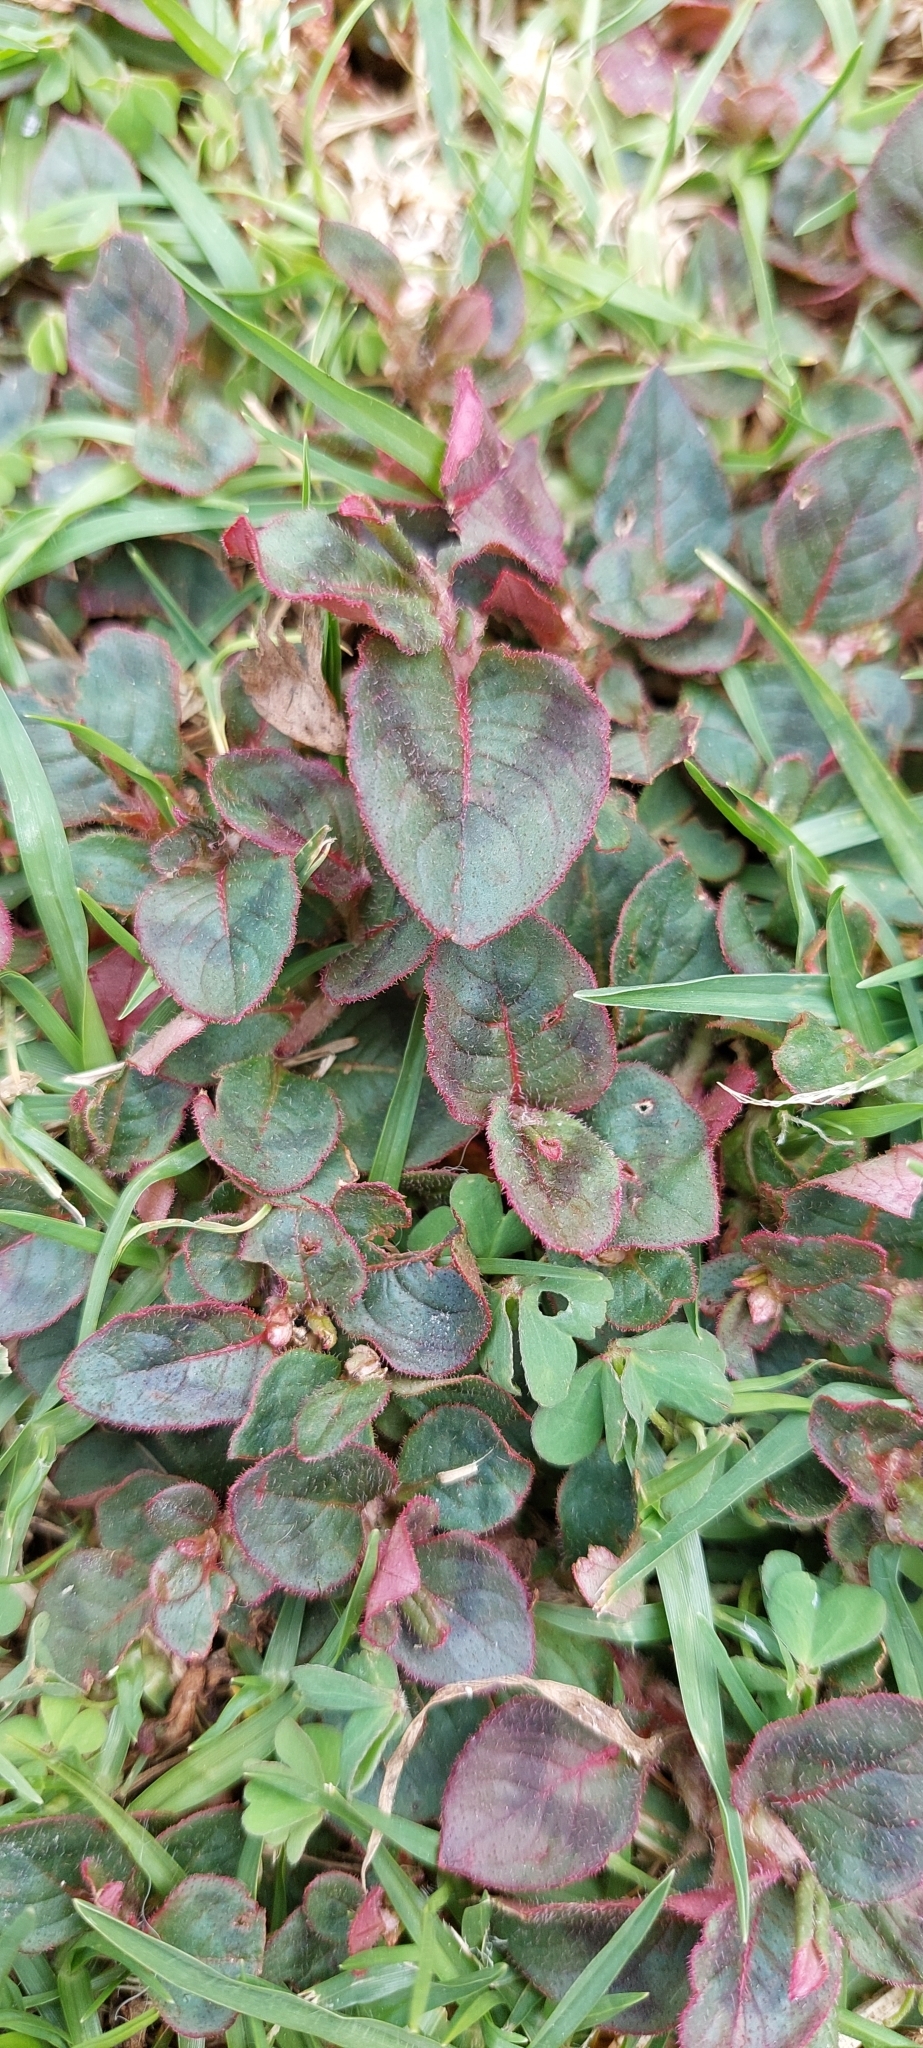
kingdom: Plantae
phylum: Tracheophyta
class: Magnoliopsida
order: Caryophyllales
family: Polygonaceae
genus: Persicaria
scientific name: Persicaria capitata
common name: Pinkhead smartweed
